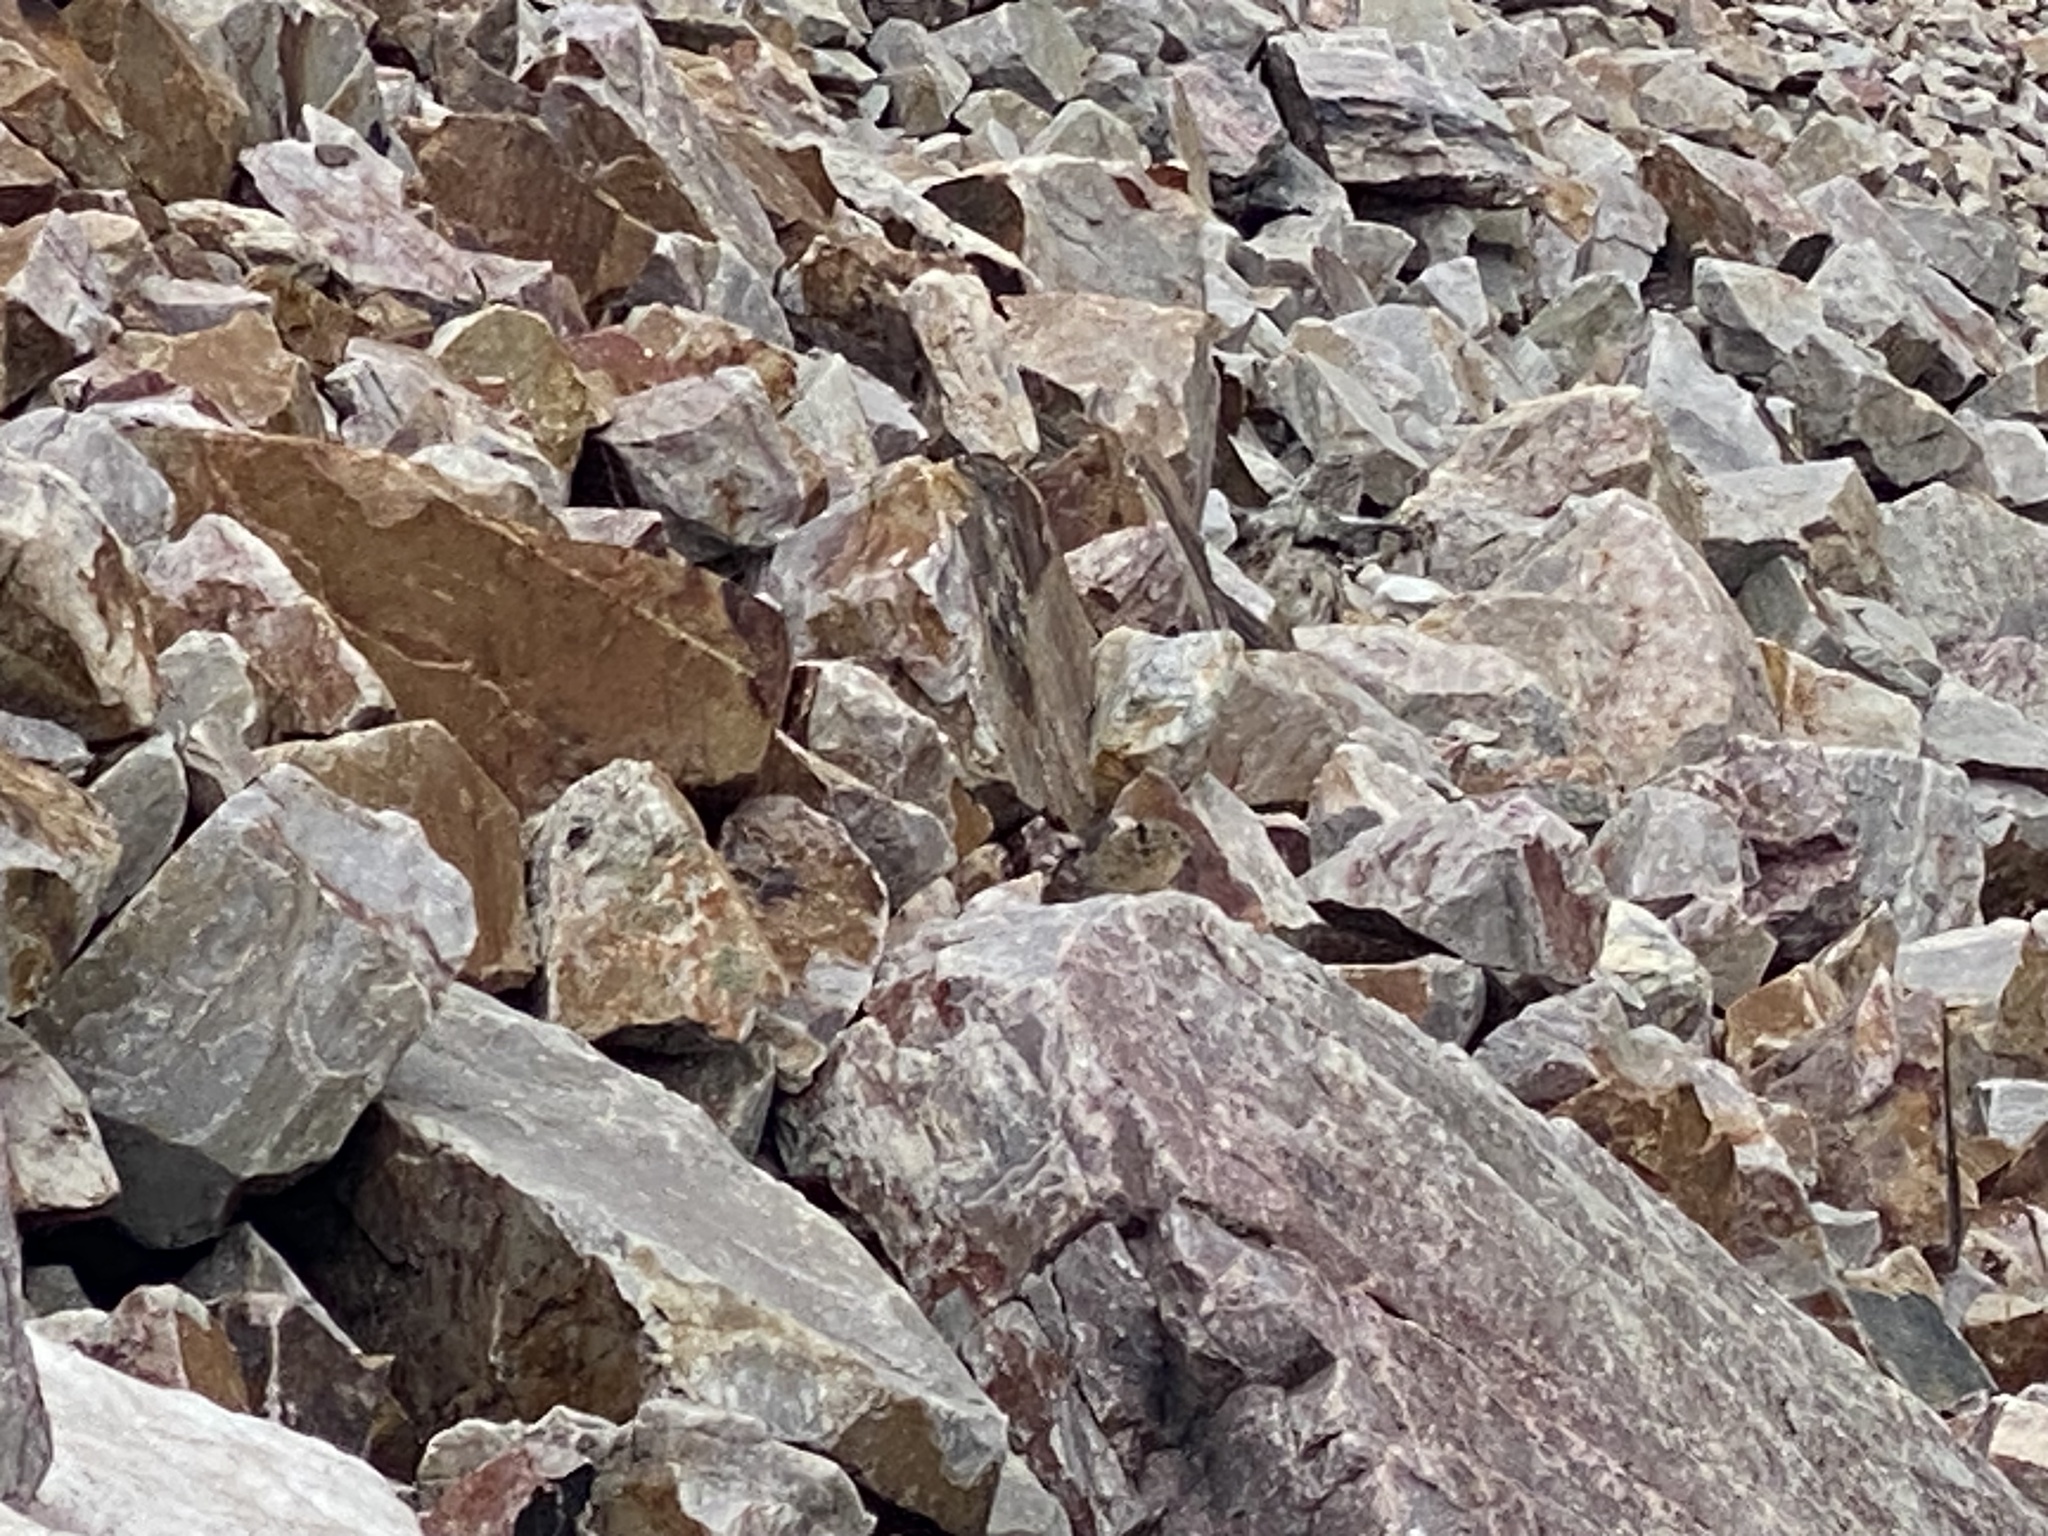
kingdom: Animalia
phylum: Chordata
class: Mammalia
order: Lagomorpha
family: Ochotonidae
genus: Ochotona
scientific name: Ochotona princeps
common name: American pika
